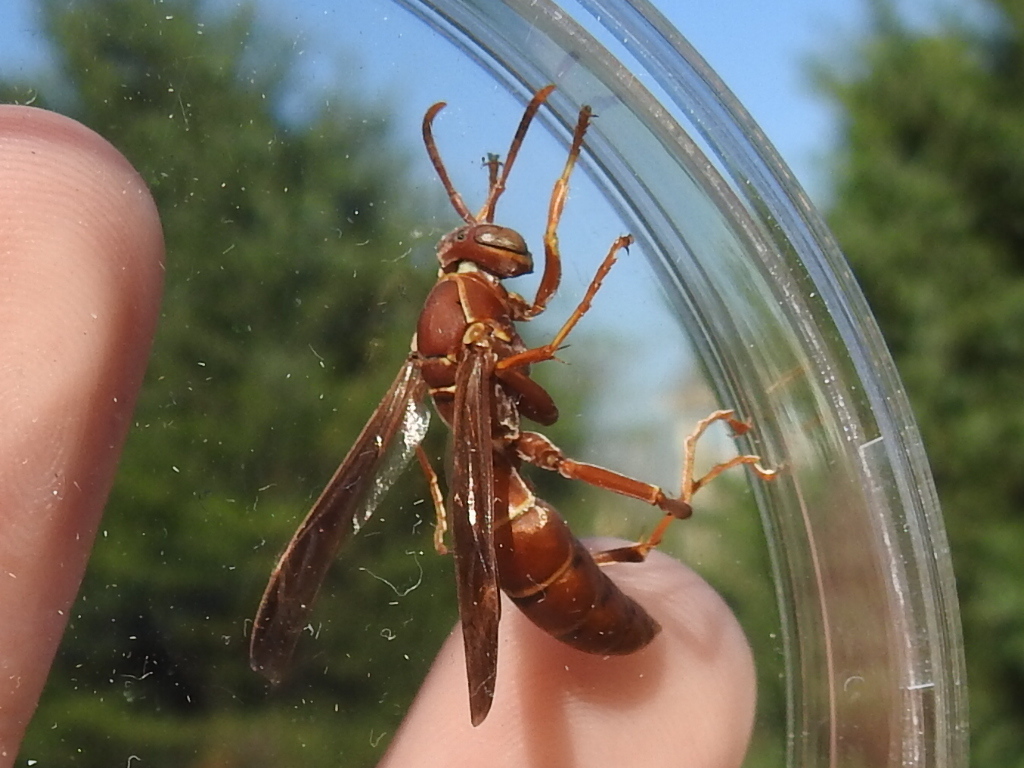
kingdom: Animalia
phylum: Arthropoda
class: Insecta
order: Hymenoptera
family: Eumenidae
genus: Polistes
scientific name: Polistes bellicosus
